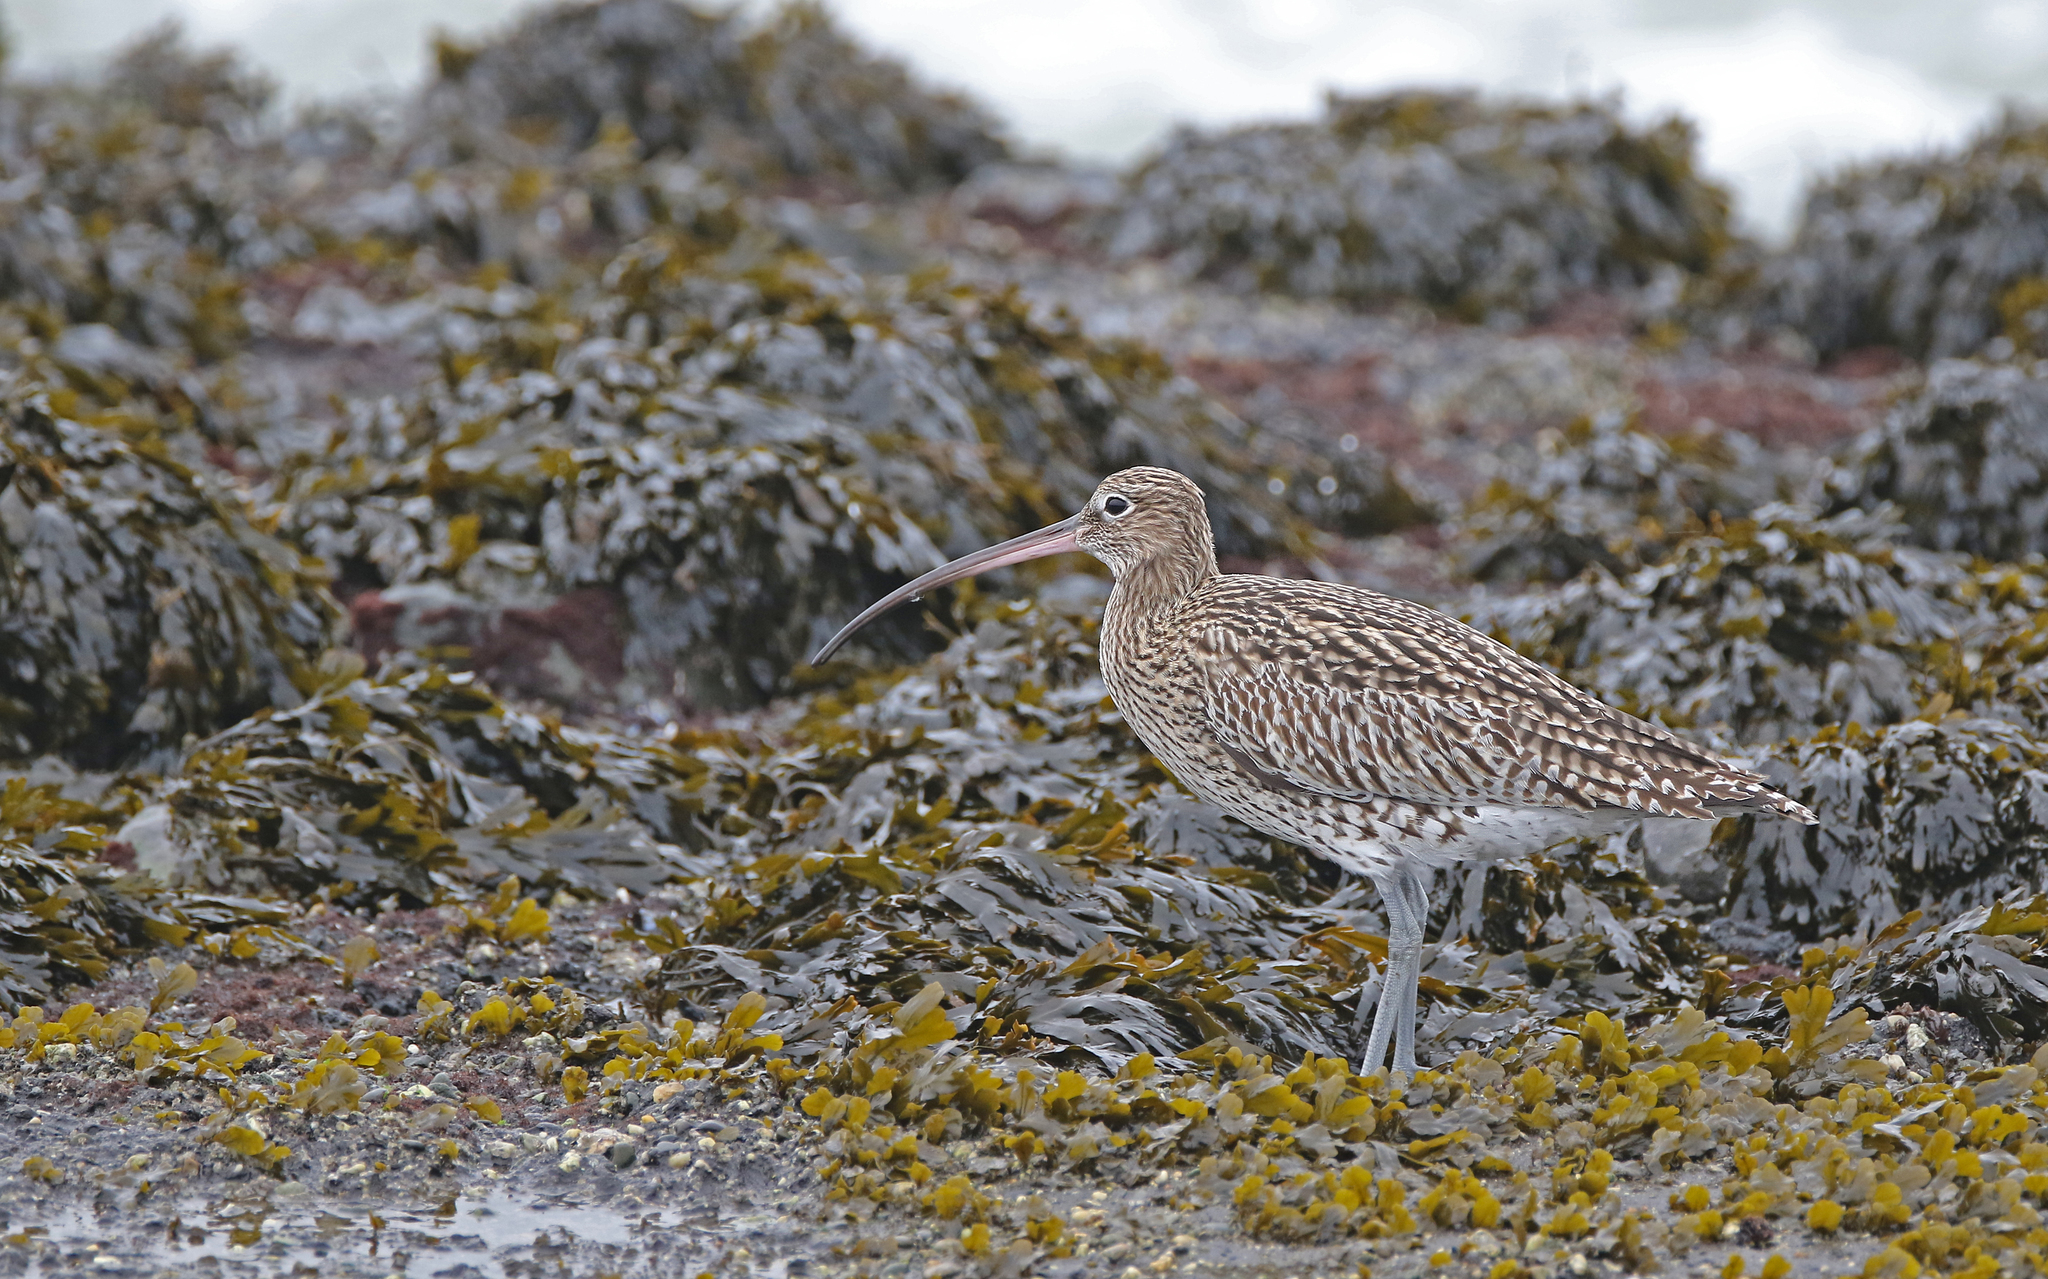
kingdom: Animalia
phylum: Chordata
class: Aves
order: Charadriiformes
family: Scolopacidae
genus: Numenius
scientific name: Numenius arquata
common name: Eurasian curlew
